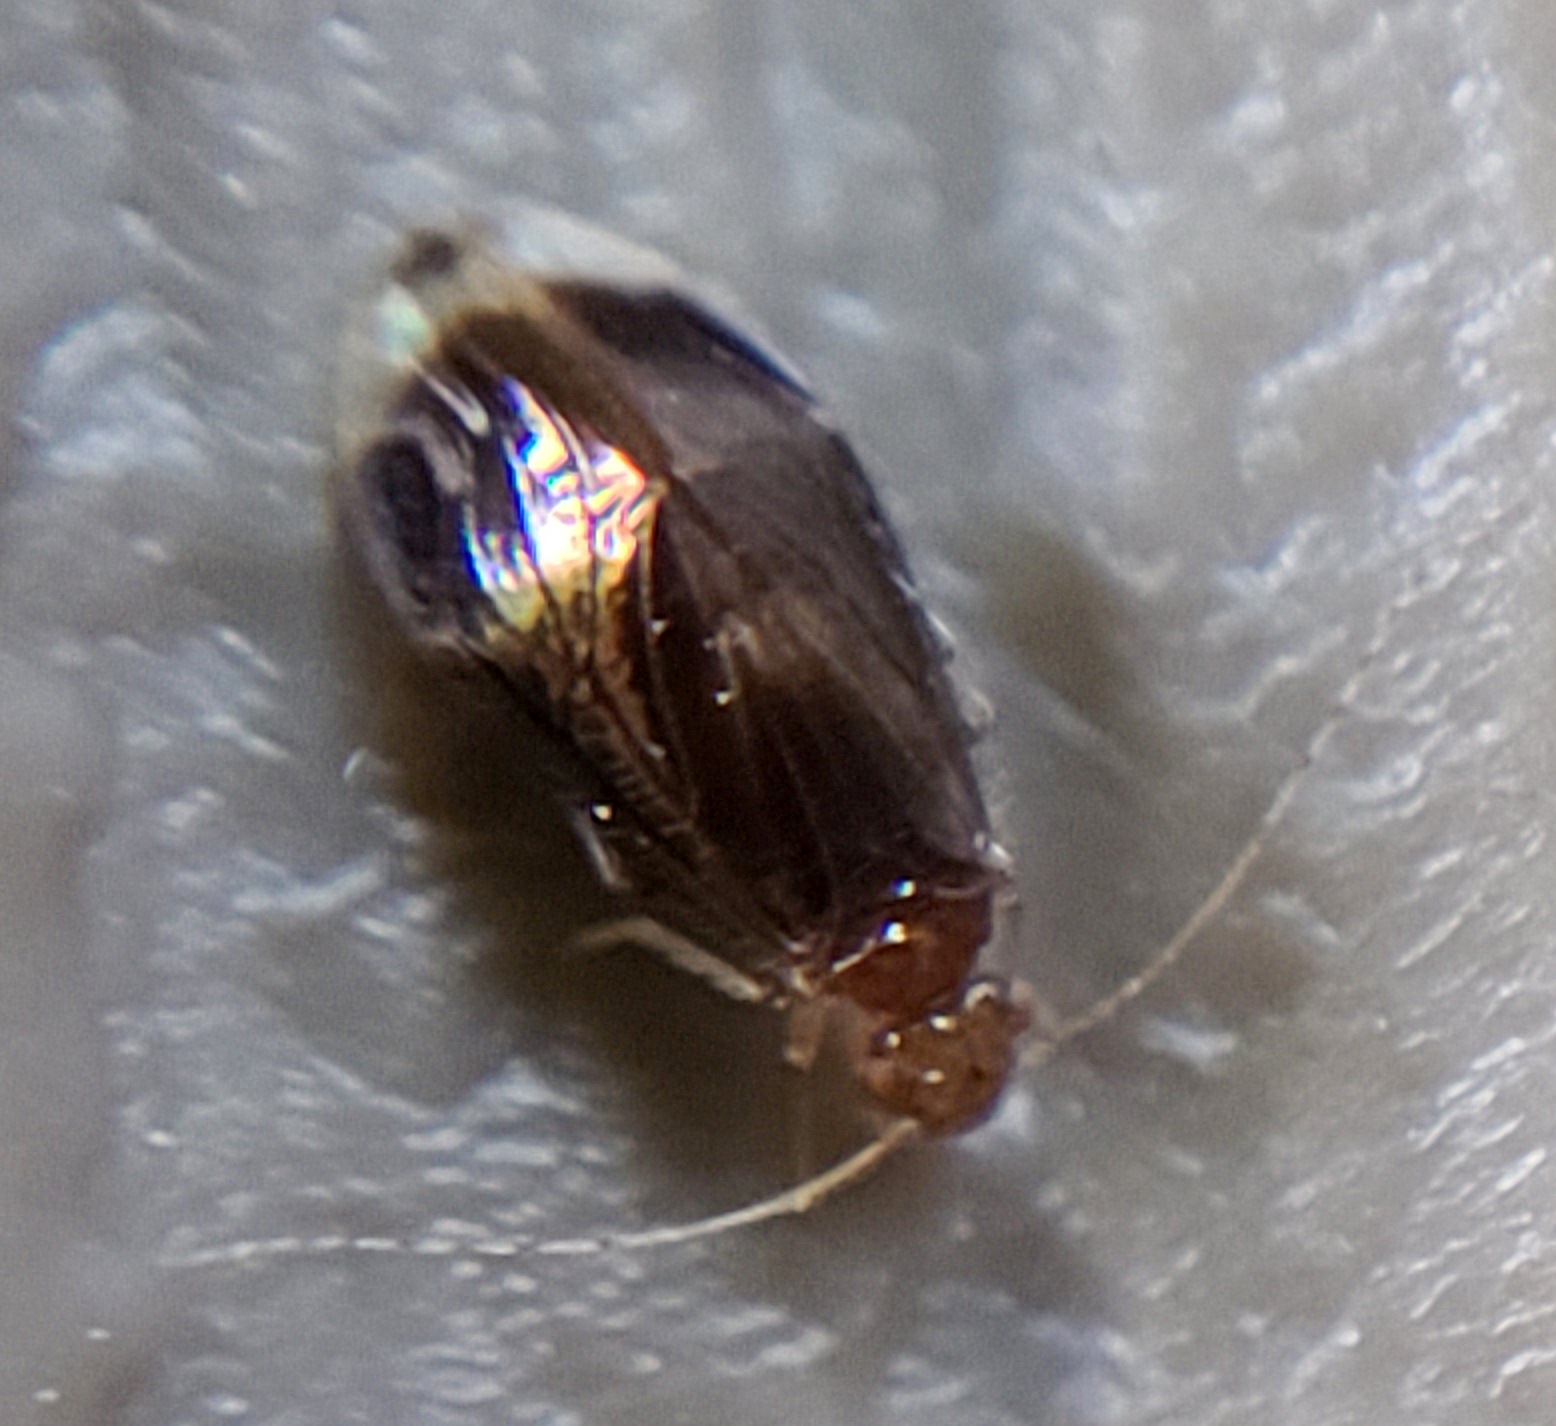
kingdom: Animalia
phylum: Arthropoda
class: Insecta
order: Psocodea
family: Amphipsocidae
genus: Polypsocus
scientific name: Polypsocus corruptus
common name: Corrupt barklouse
